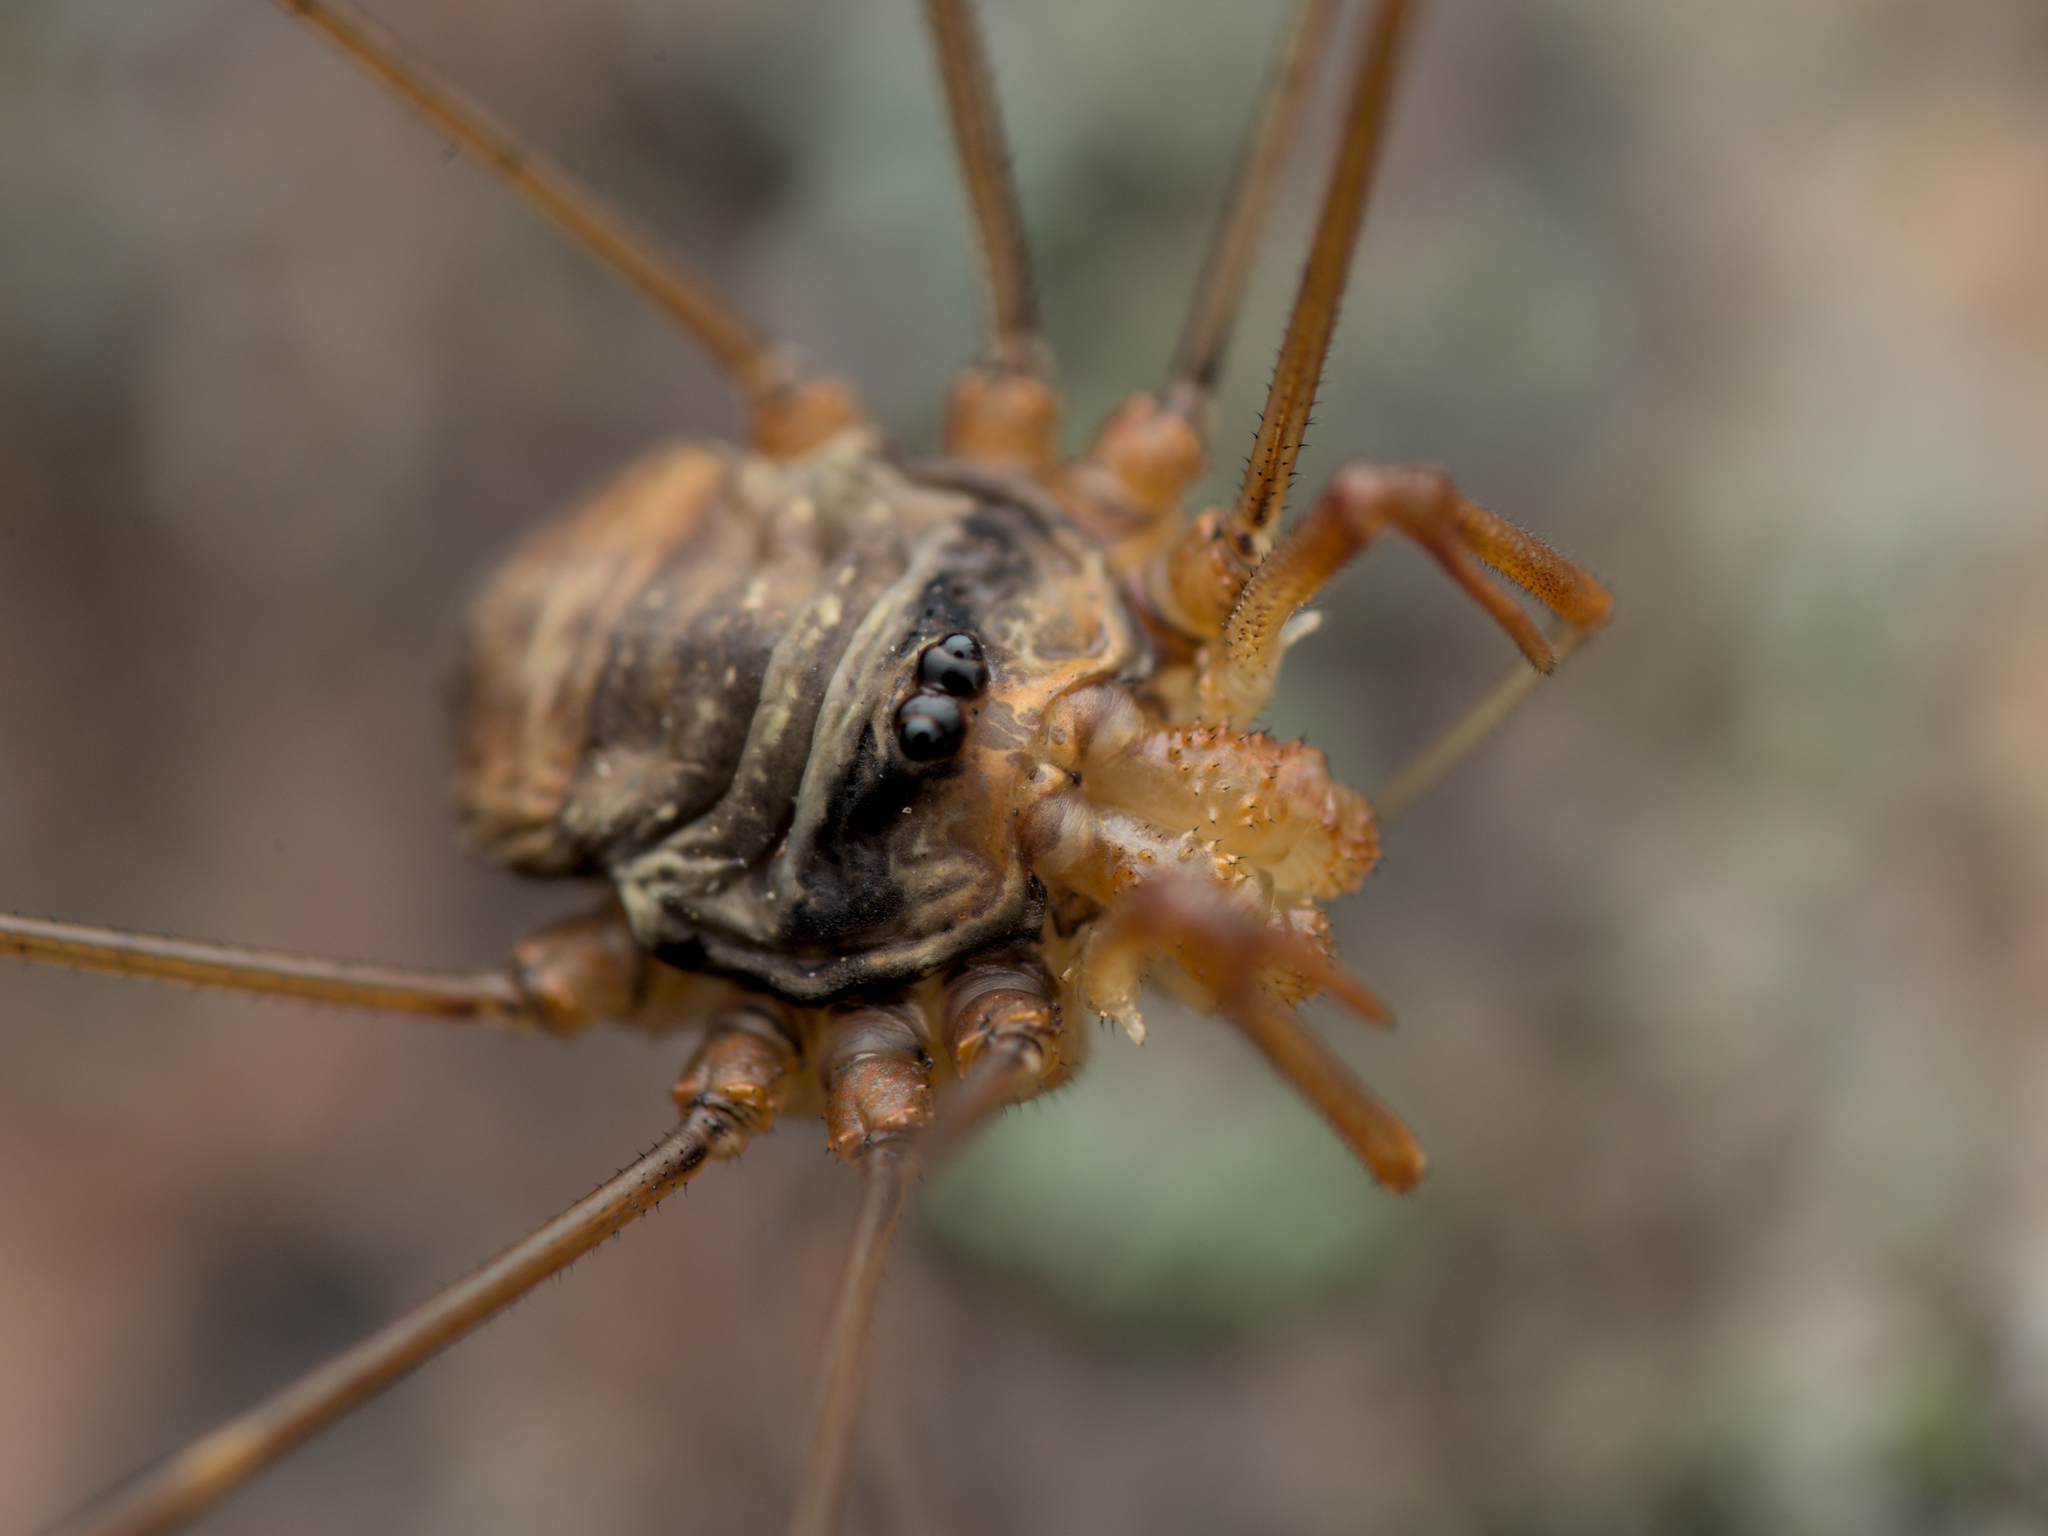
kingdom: Animalia
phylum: Arthropoda
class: Arachnida
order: Opiliones
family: Phalangiidae
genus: Dicranopalpus
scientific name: Dicranopalpus ramosus
